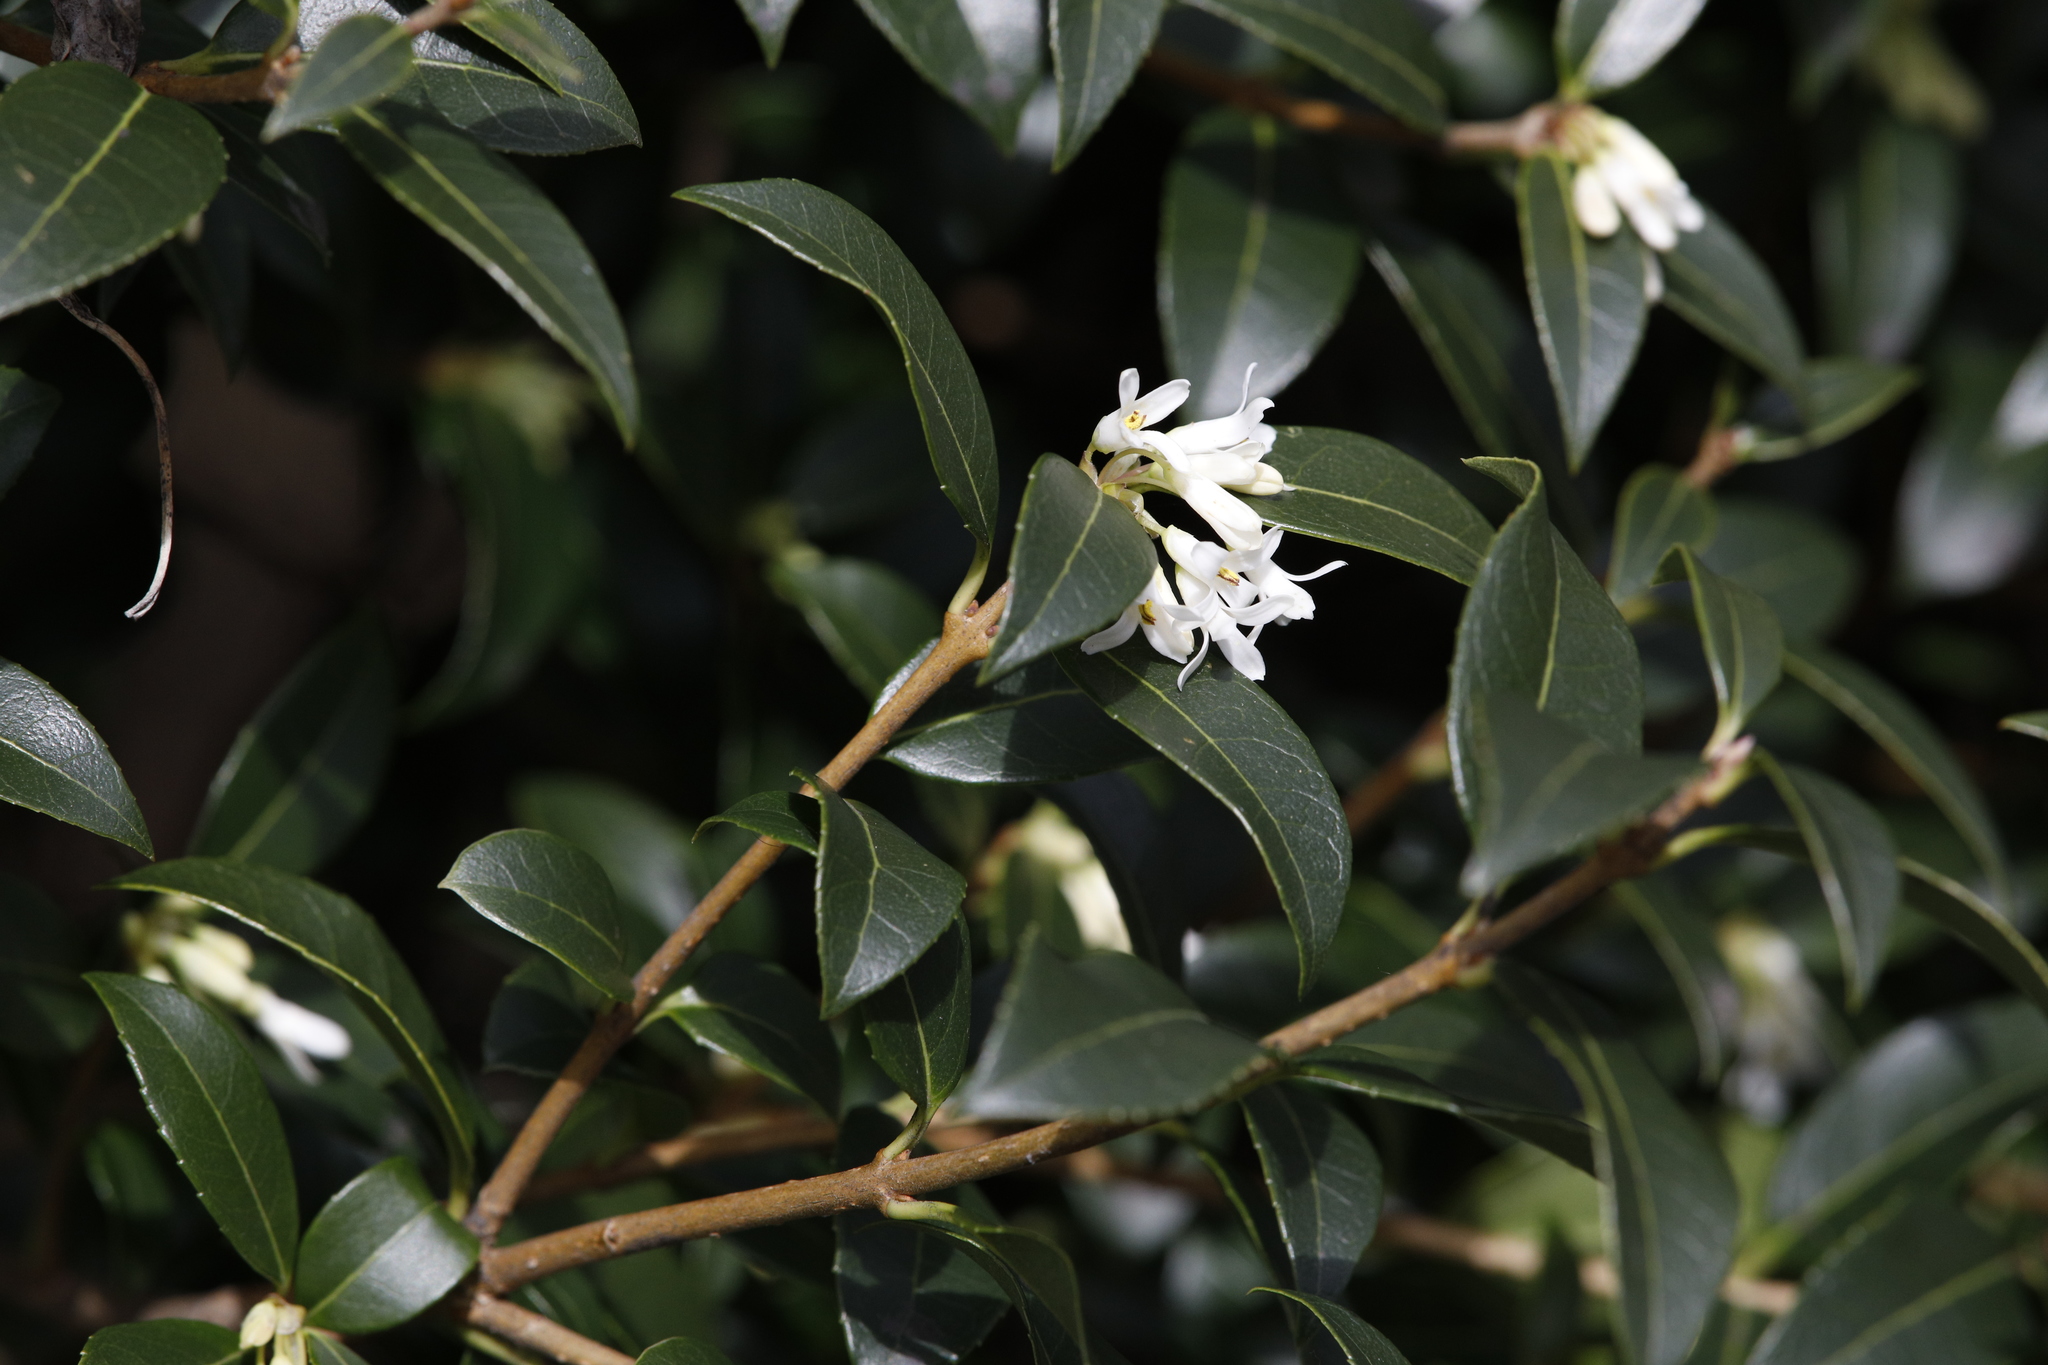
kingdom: Plantae
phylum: Tracheophyta
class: Magnoliopsida
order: Lamiales
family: Oleaceae
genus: Osmanthus
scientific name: Osmanthus burkwoodii
